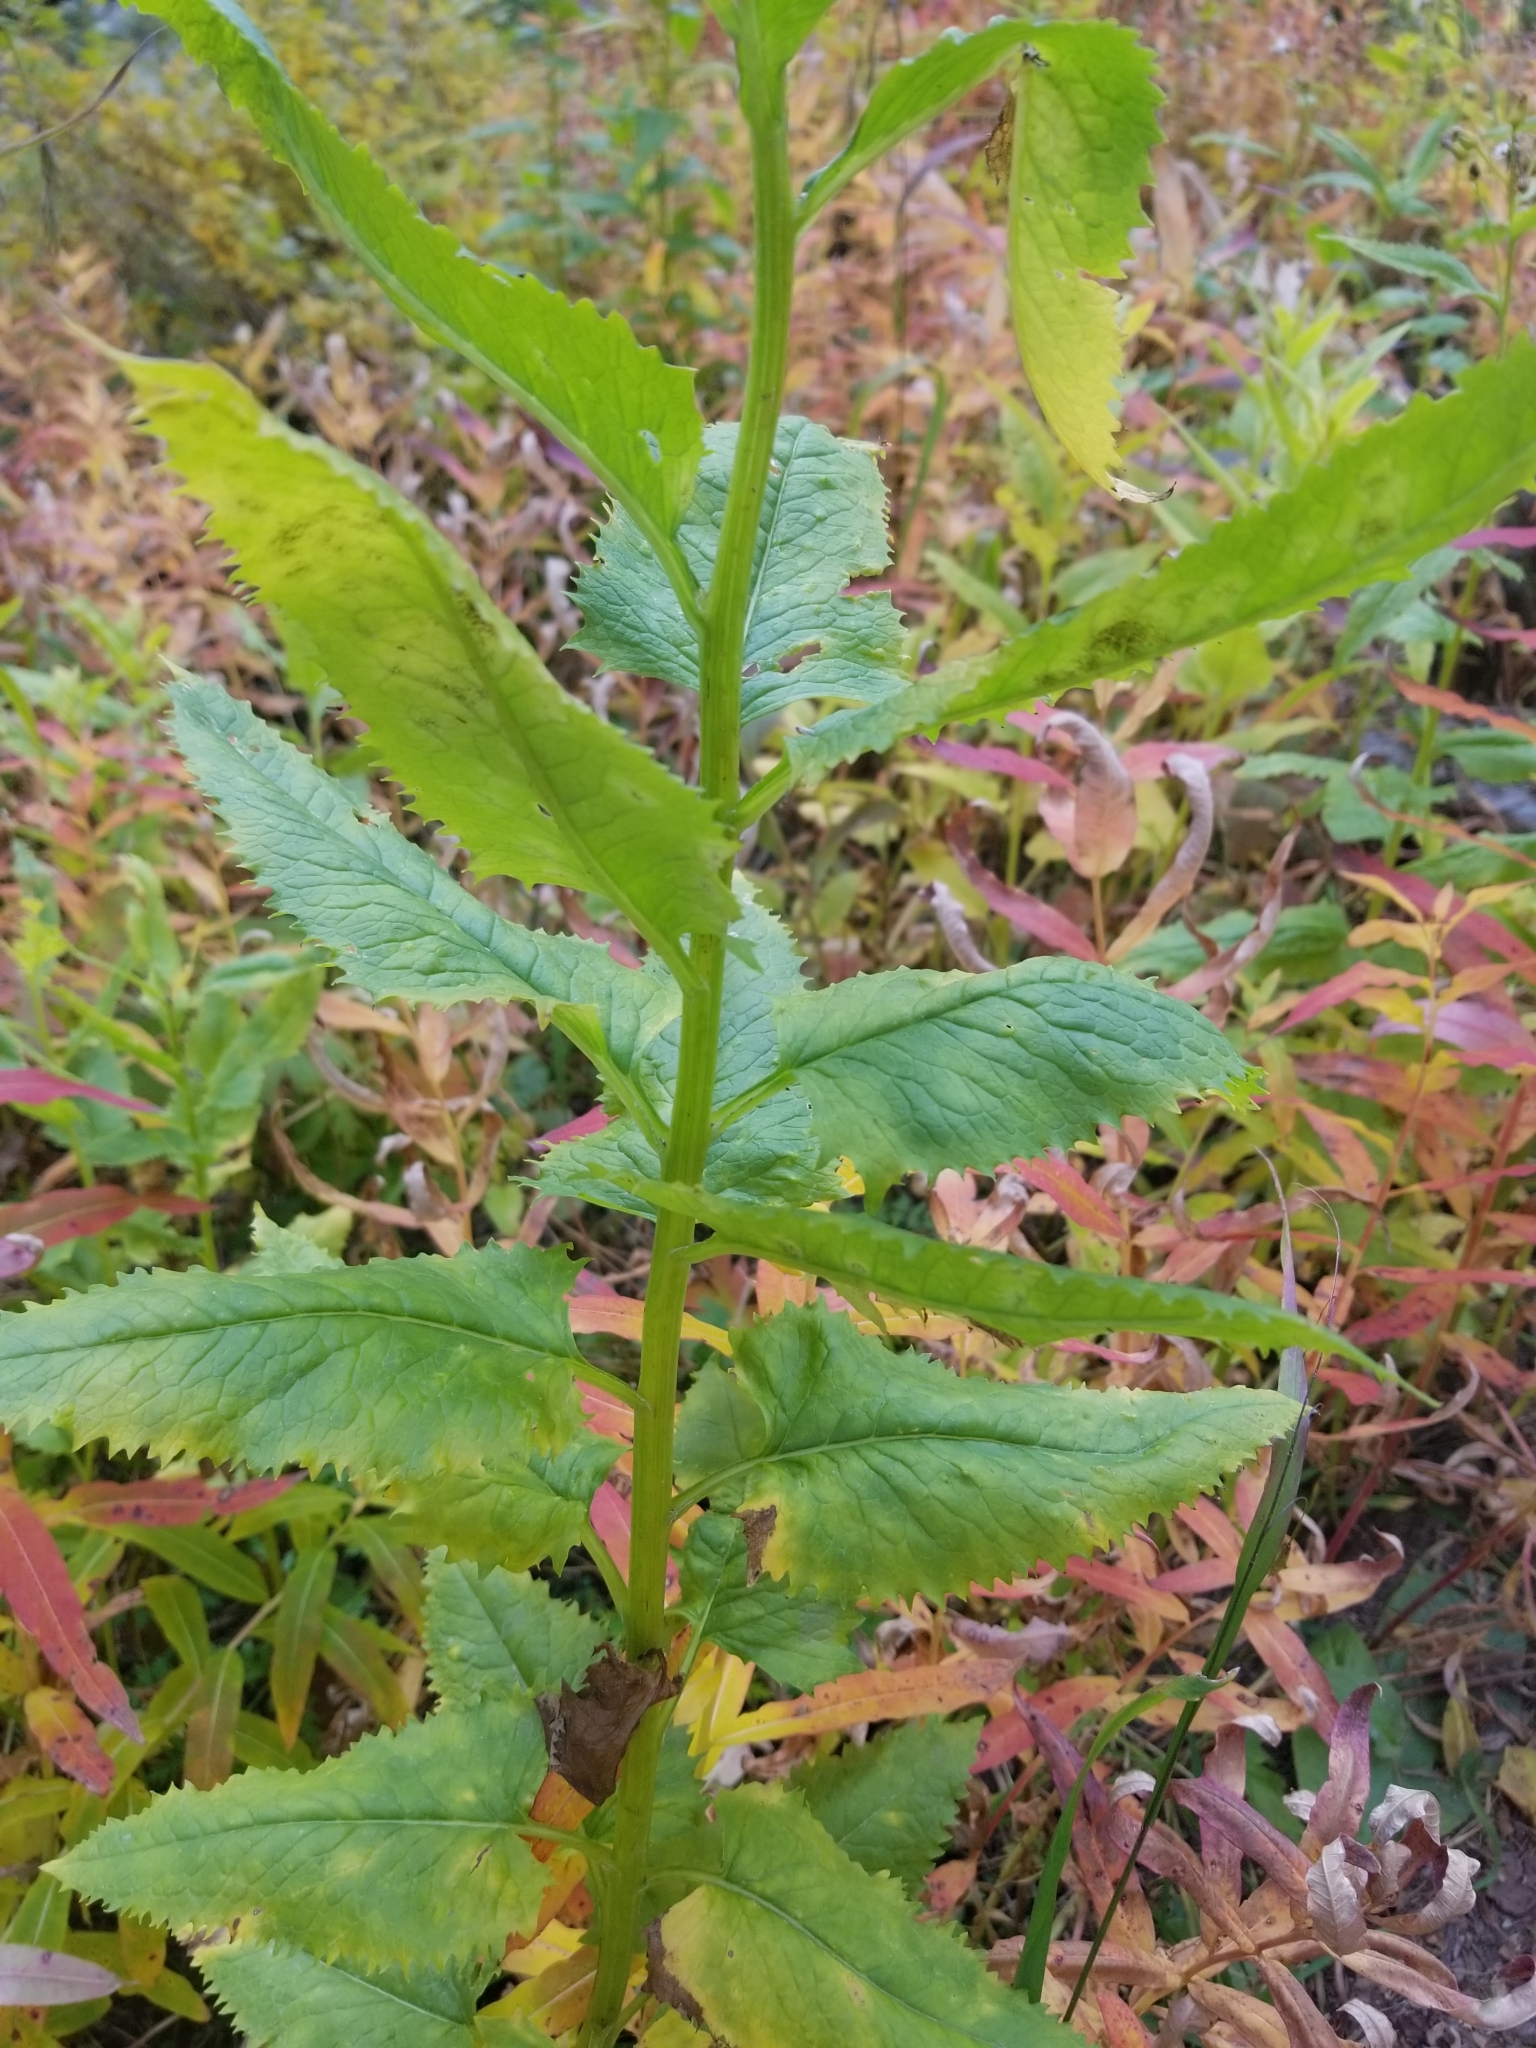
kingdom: Plantae
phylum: Tracheophyta
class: Magnoliopsida
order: Asterales
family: Asteraceae
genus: Senecio
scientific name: Senecio triangularis
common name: Arrowleaf butterweed
